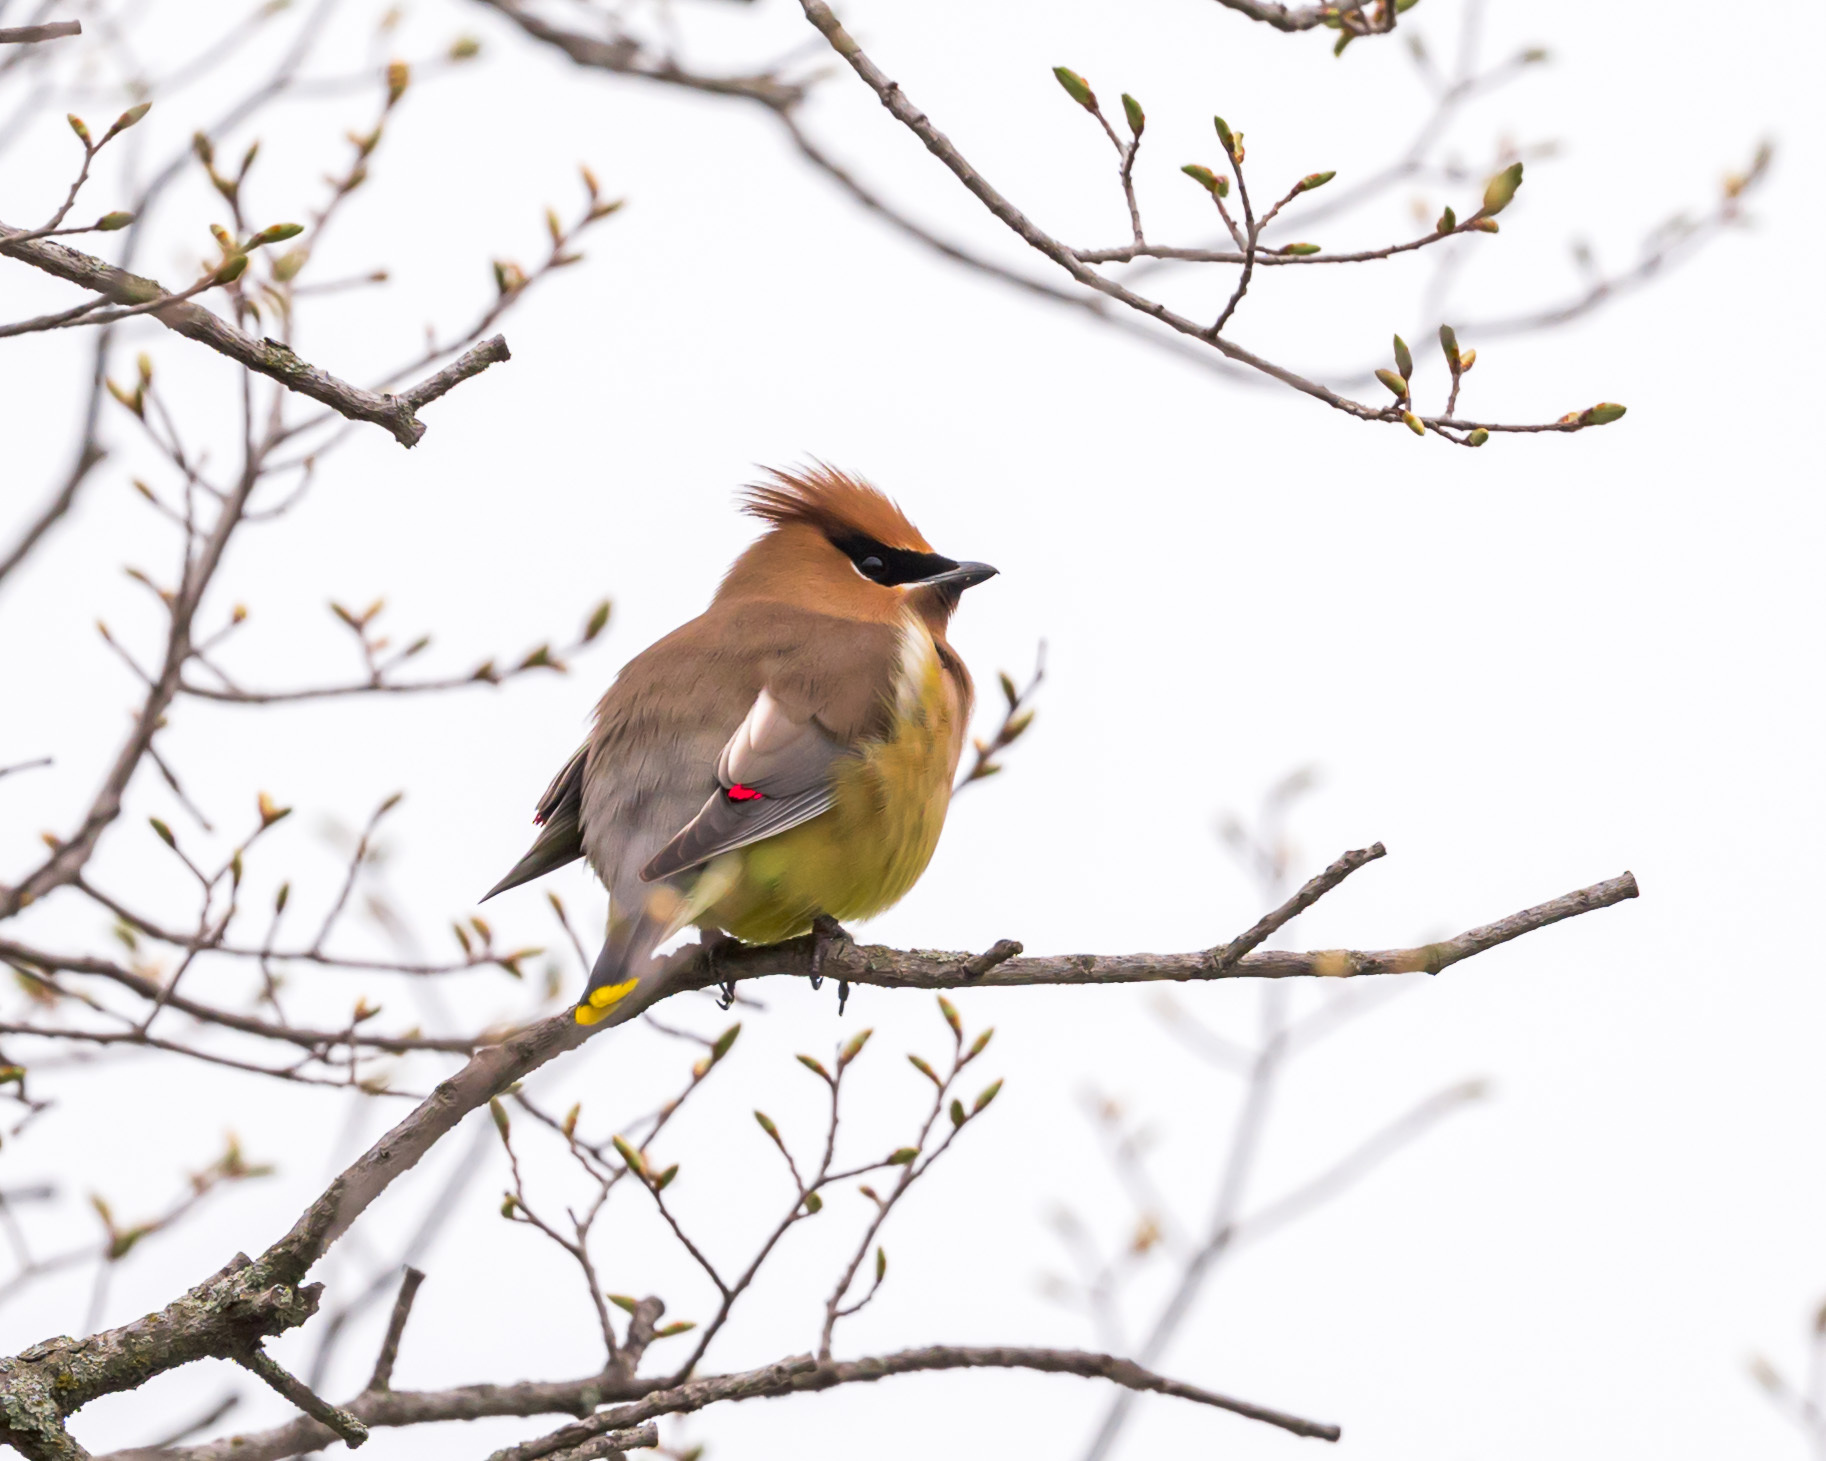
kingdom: Animalia
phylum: Chordata
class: Aves
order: Passeriformes
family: Bombycillidae
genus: Bombycilla
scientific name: Bombycilla cedrorum
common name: Cedar waxwing
